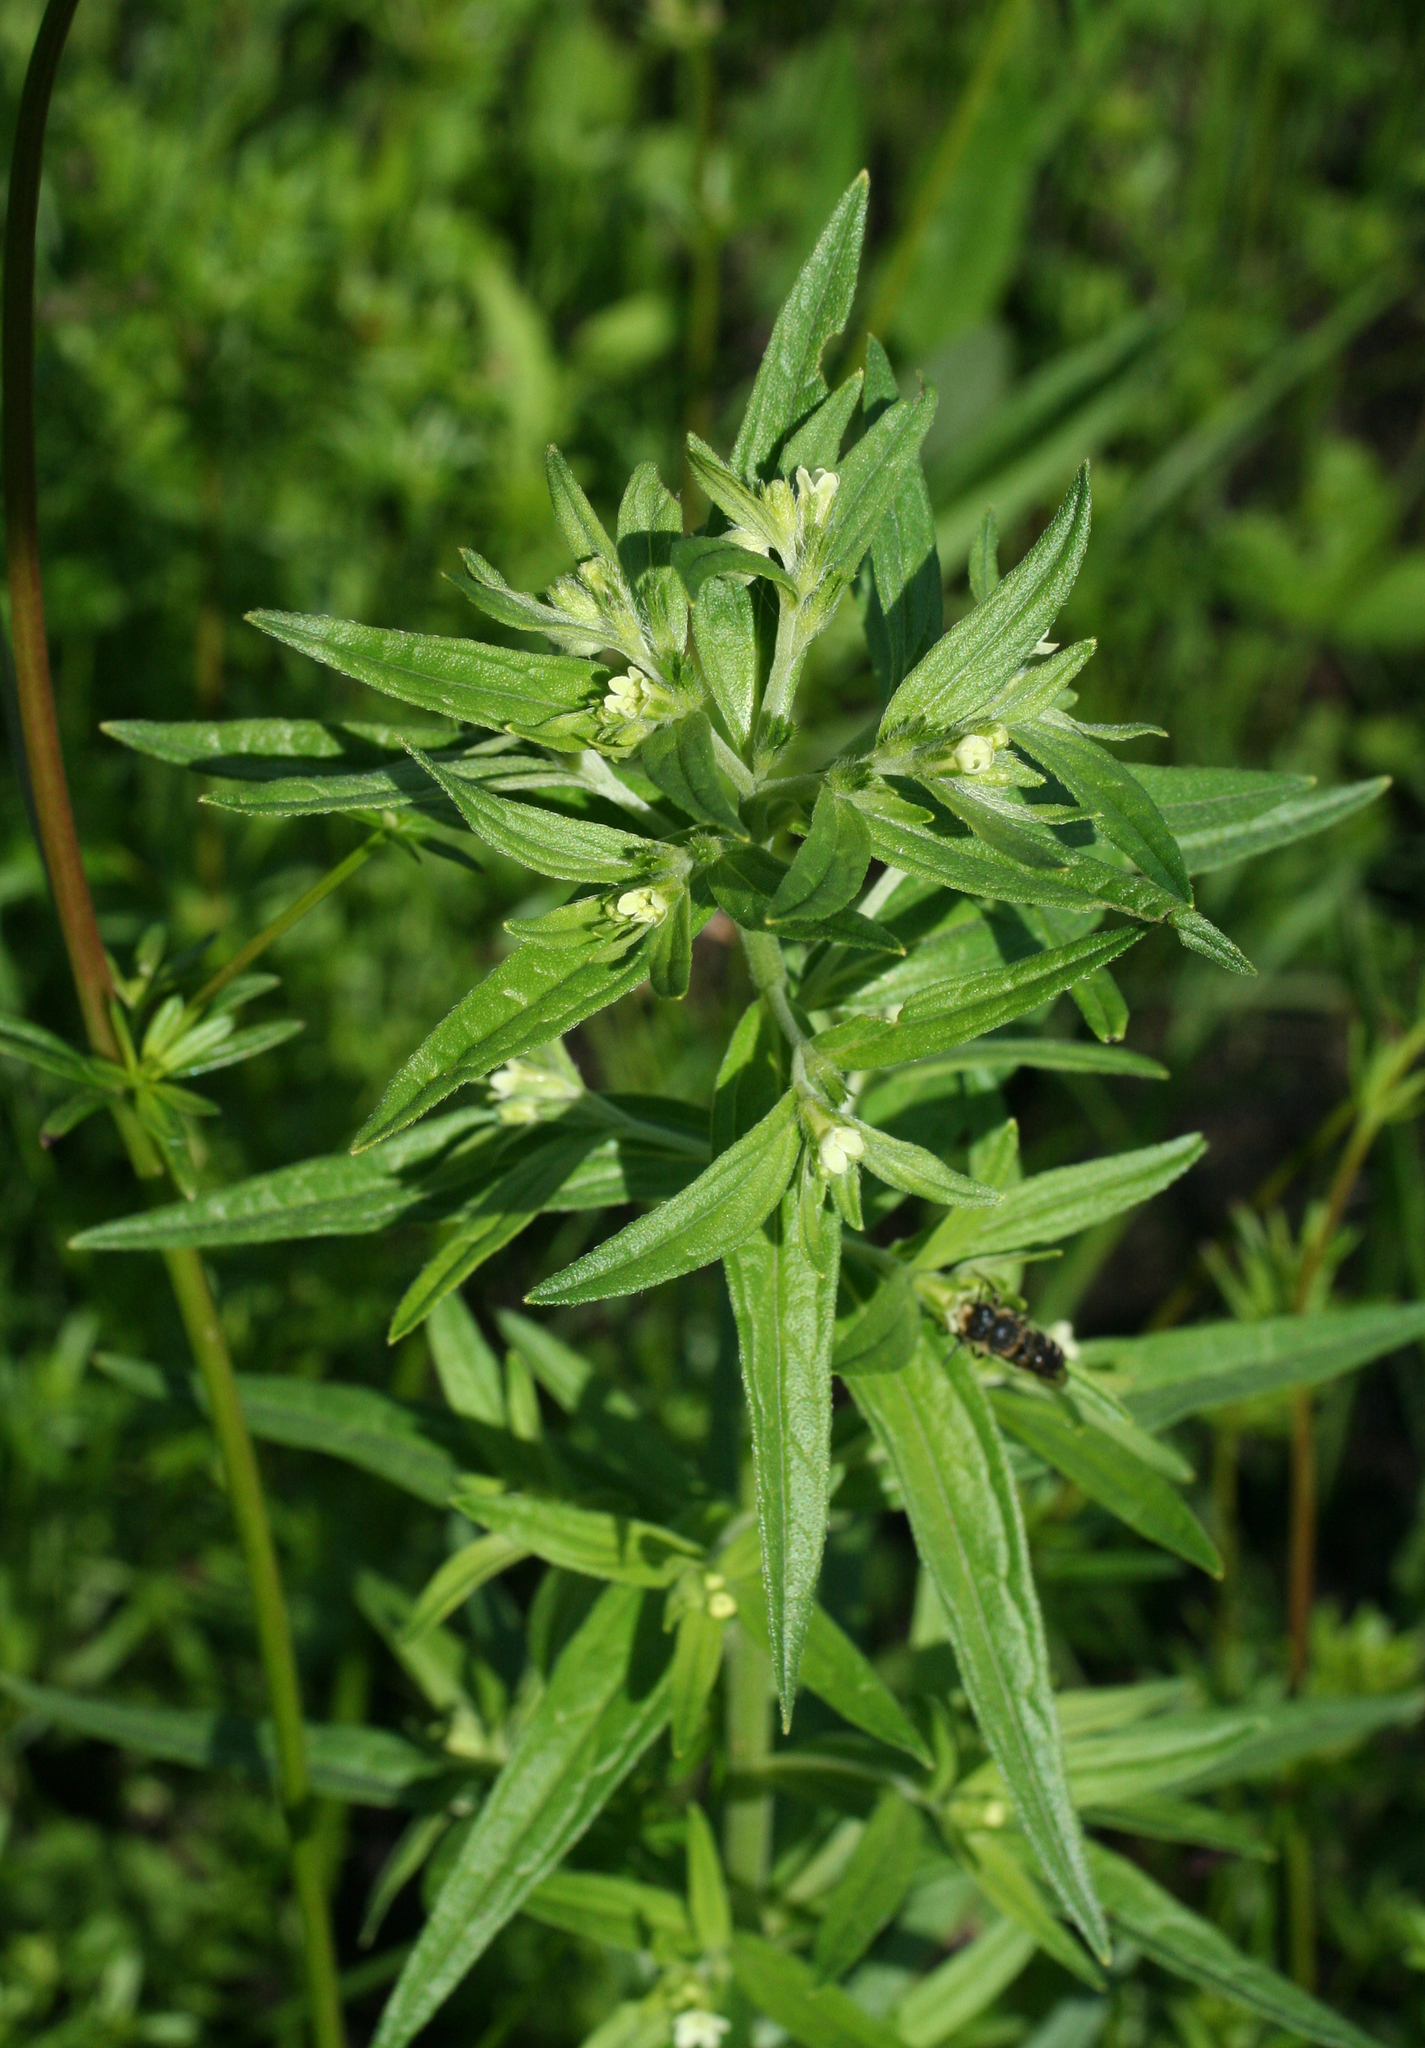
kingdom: Plantae
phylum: Tracheophyta
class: Magnoliopsida
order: Boraginales
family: Boraginaceae
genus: Lithospermum
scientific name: Lithospermum officinale
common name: Common gromwell
